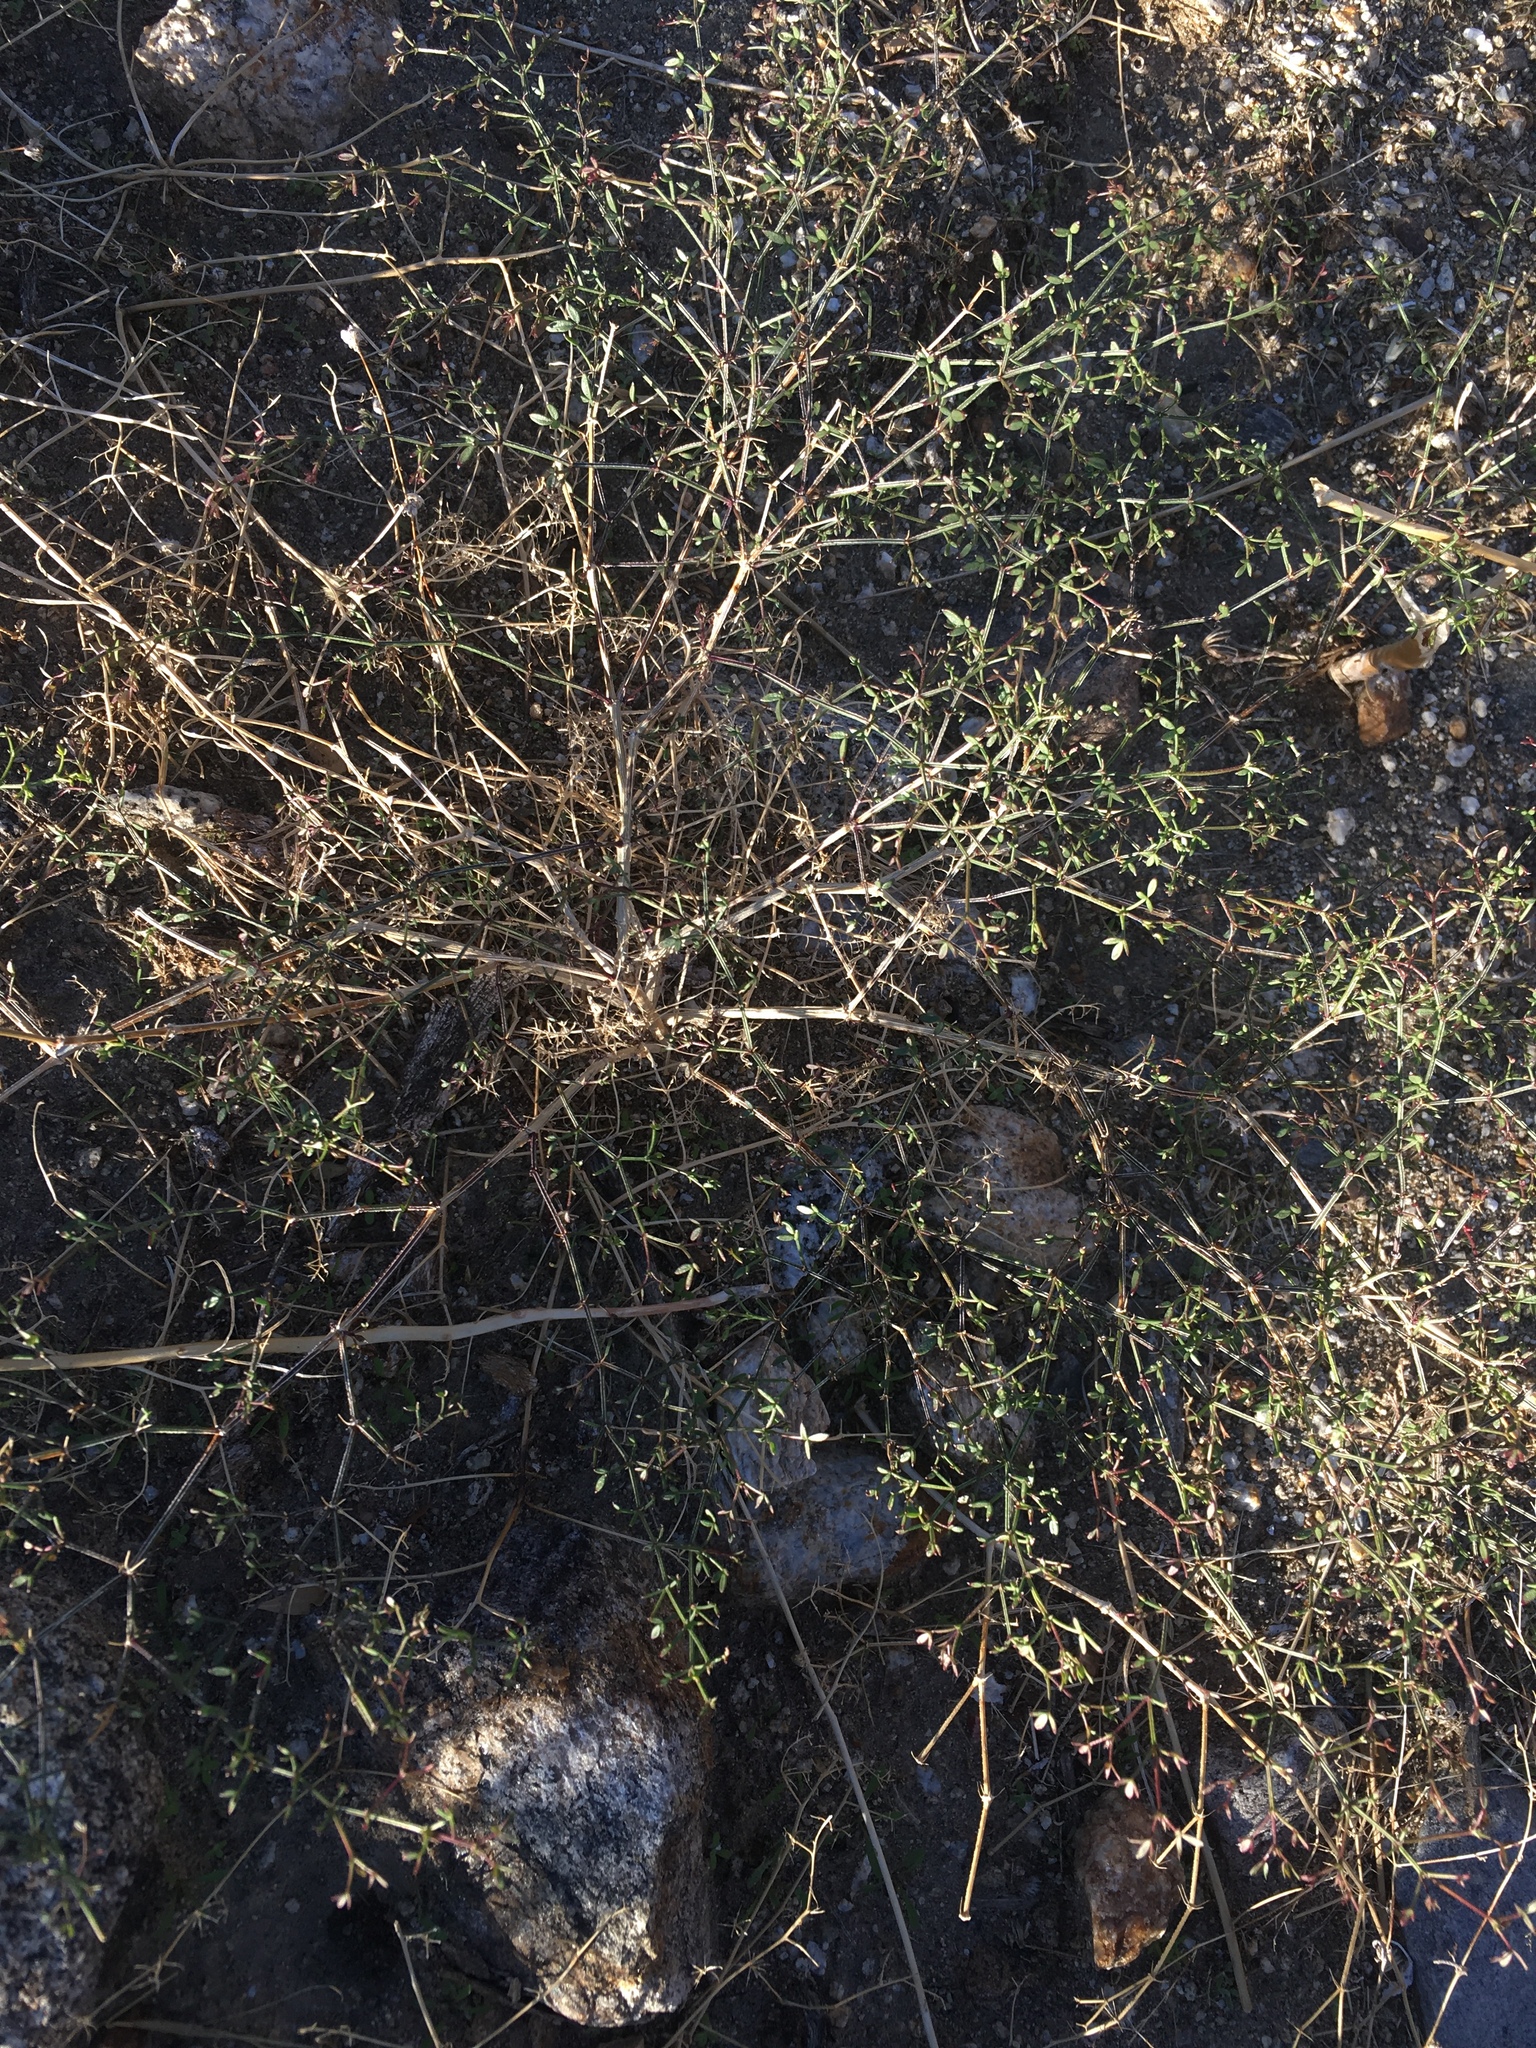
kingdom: Plantae
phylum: Tracheophyta
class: Magnoliopsida
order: Zygophyllales
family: Zygophyllaceae
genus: Fagonia
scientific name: Fagonia laevis
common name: California fagonbush
